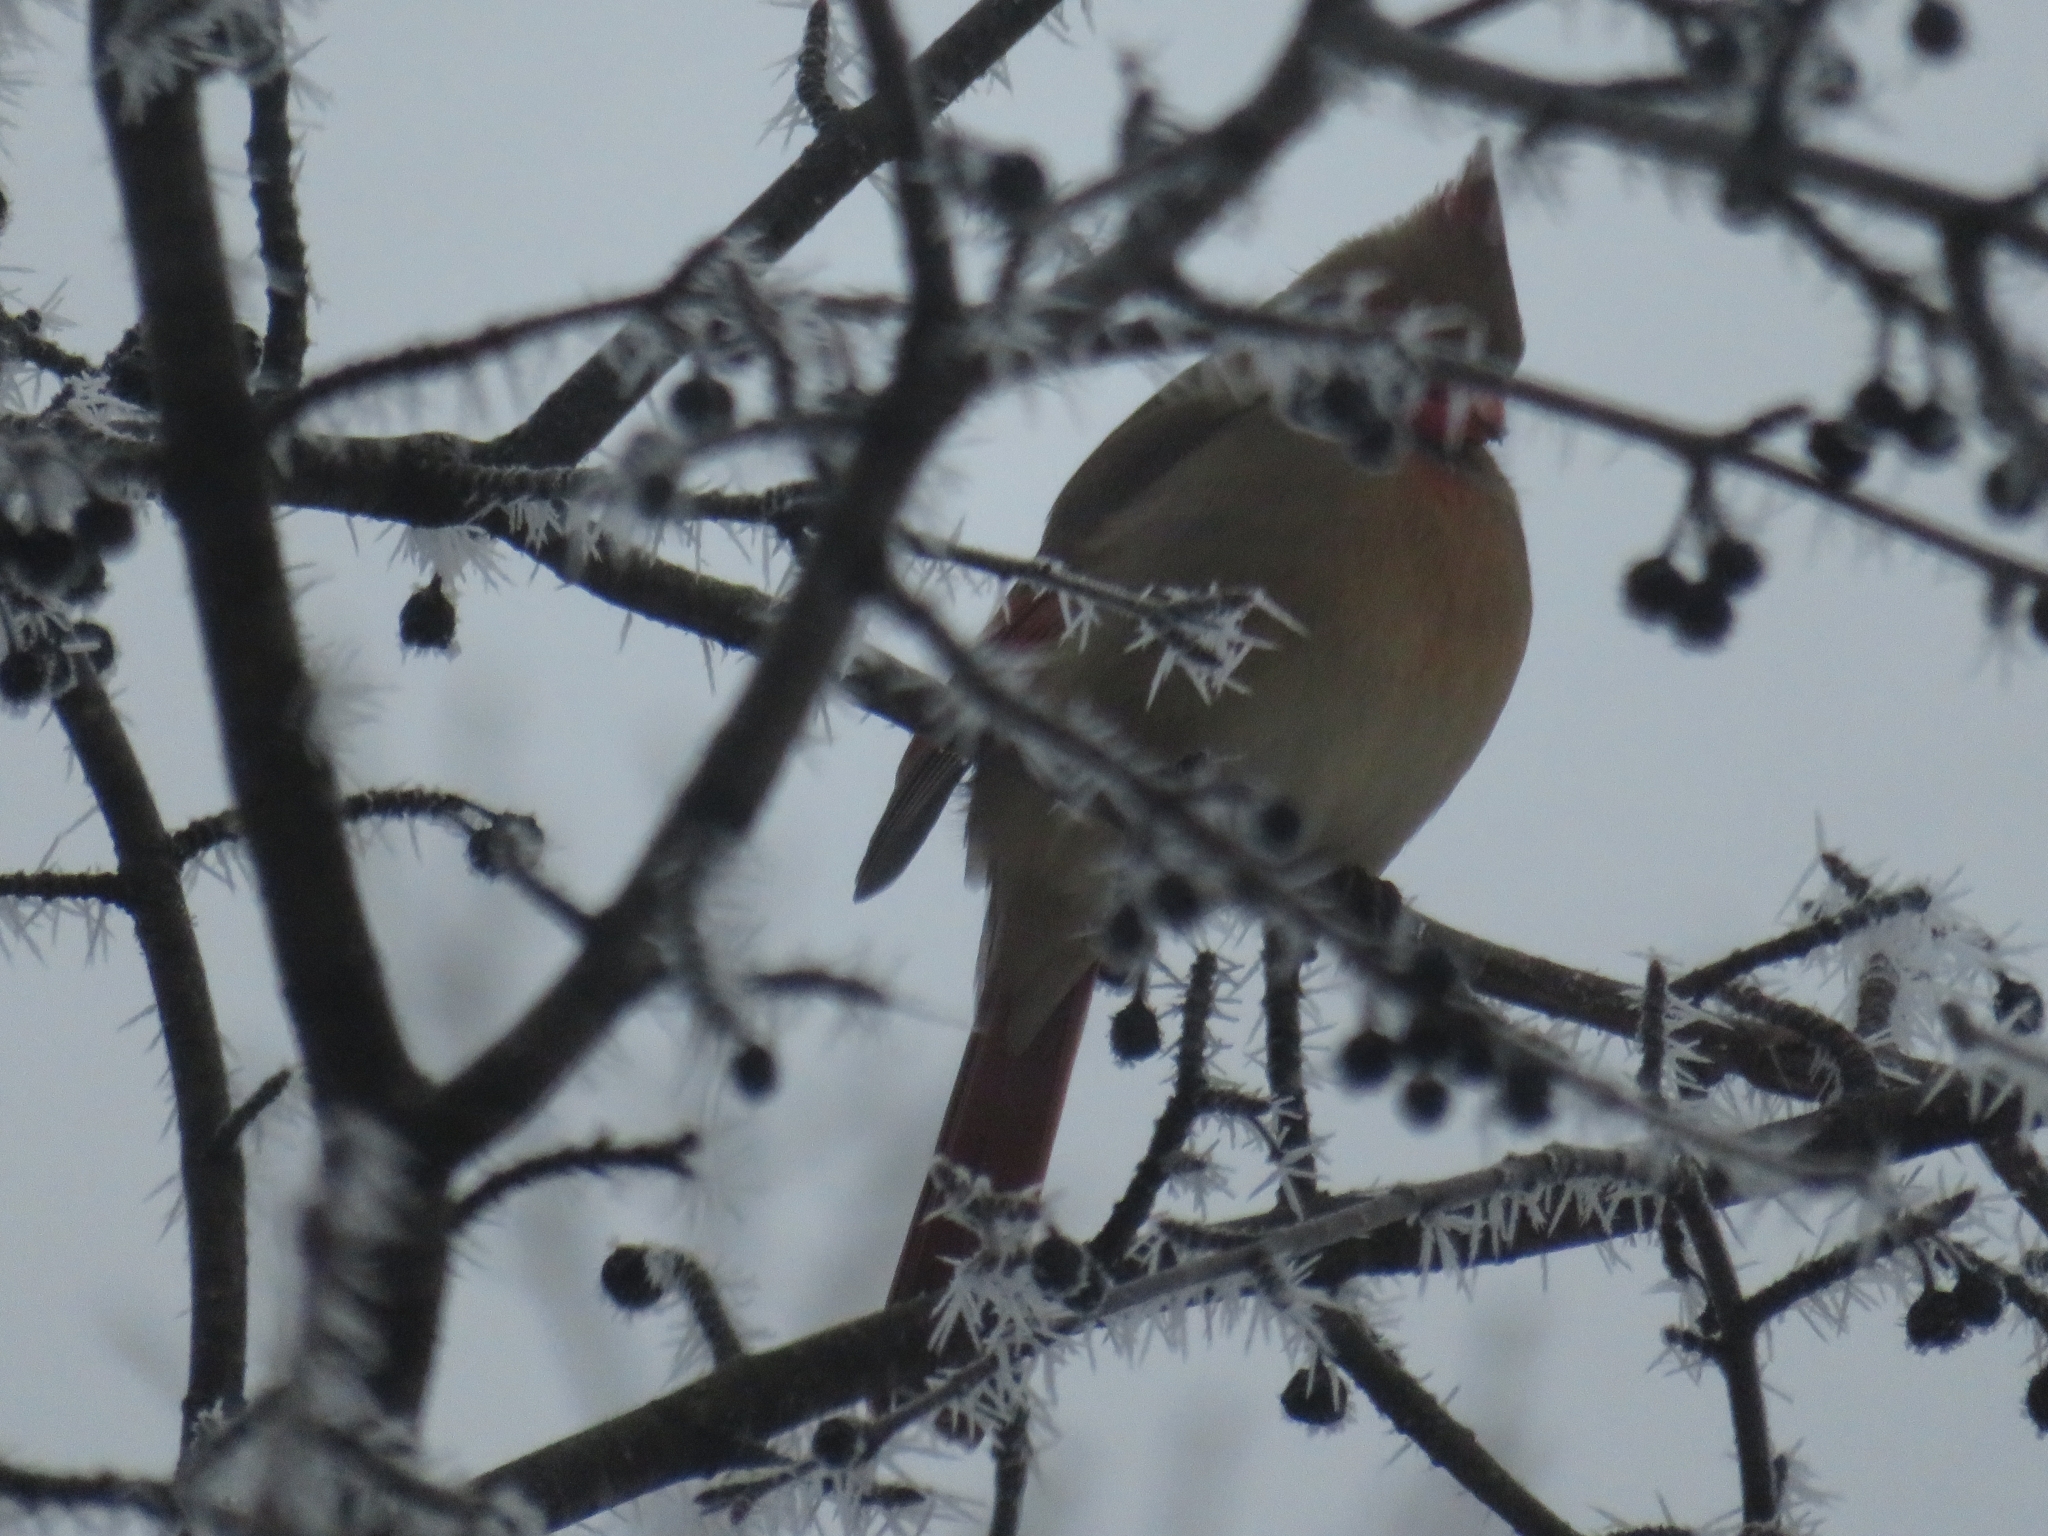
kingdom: Animalia
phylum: Chordata
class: Aves
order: Passeriformes
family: Cardinalidae
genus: Cardinalis
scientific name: Cardinalis cardinalis
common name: Northern cardinal
